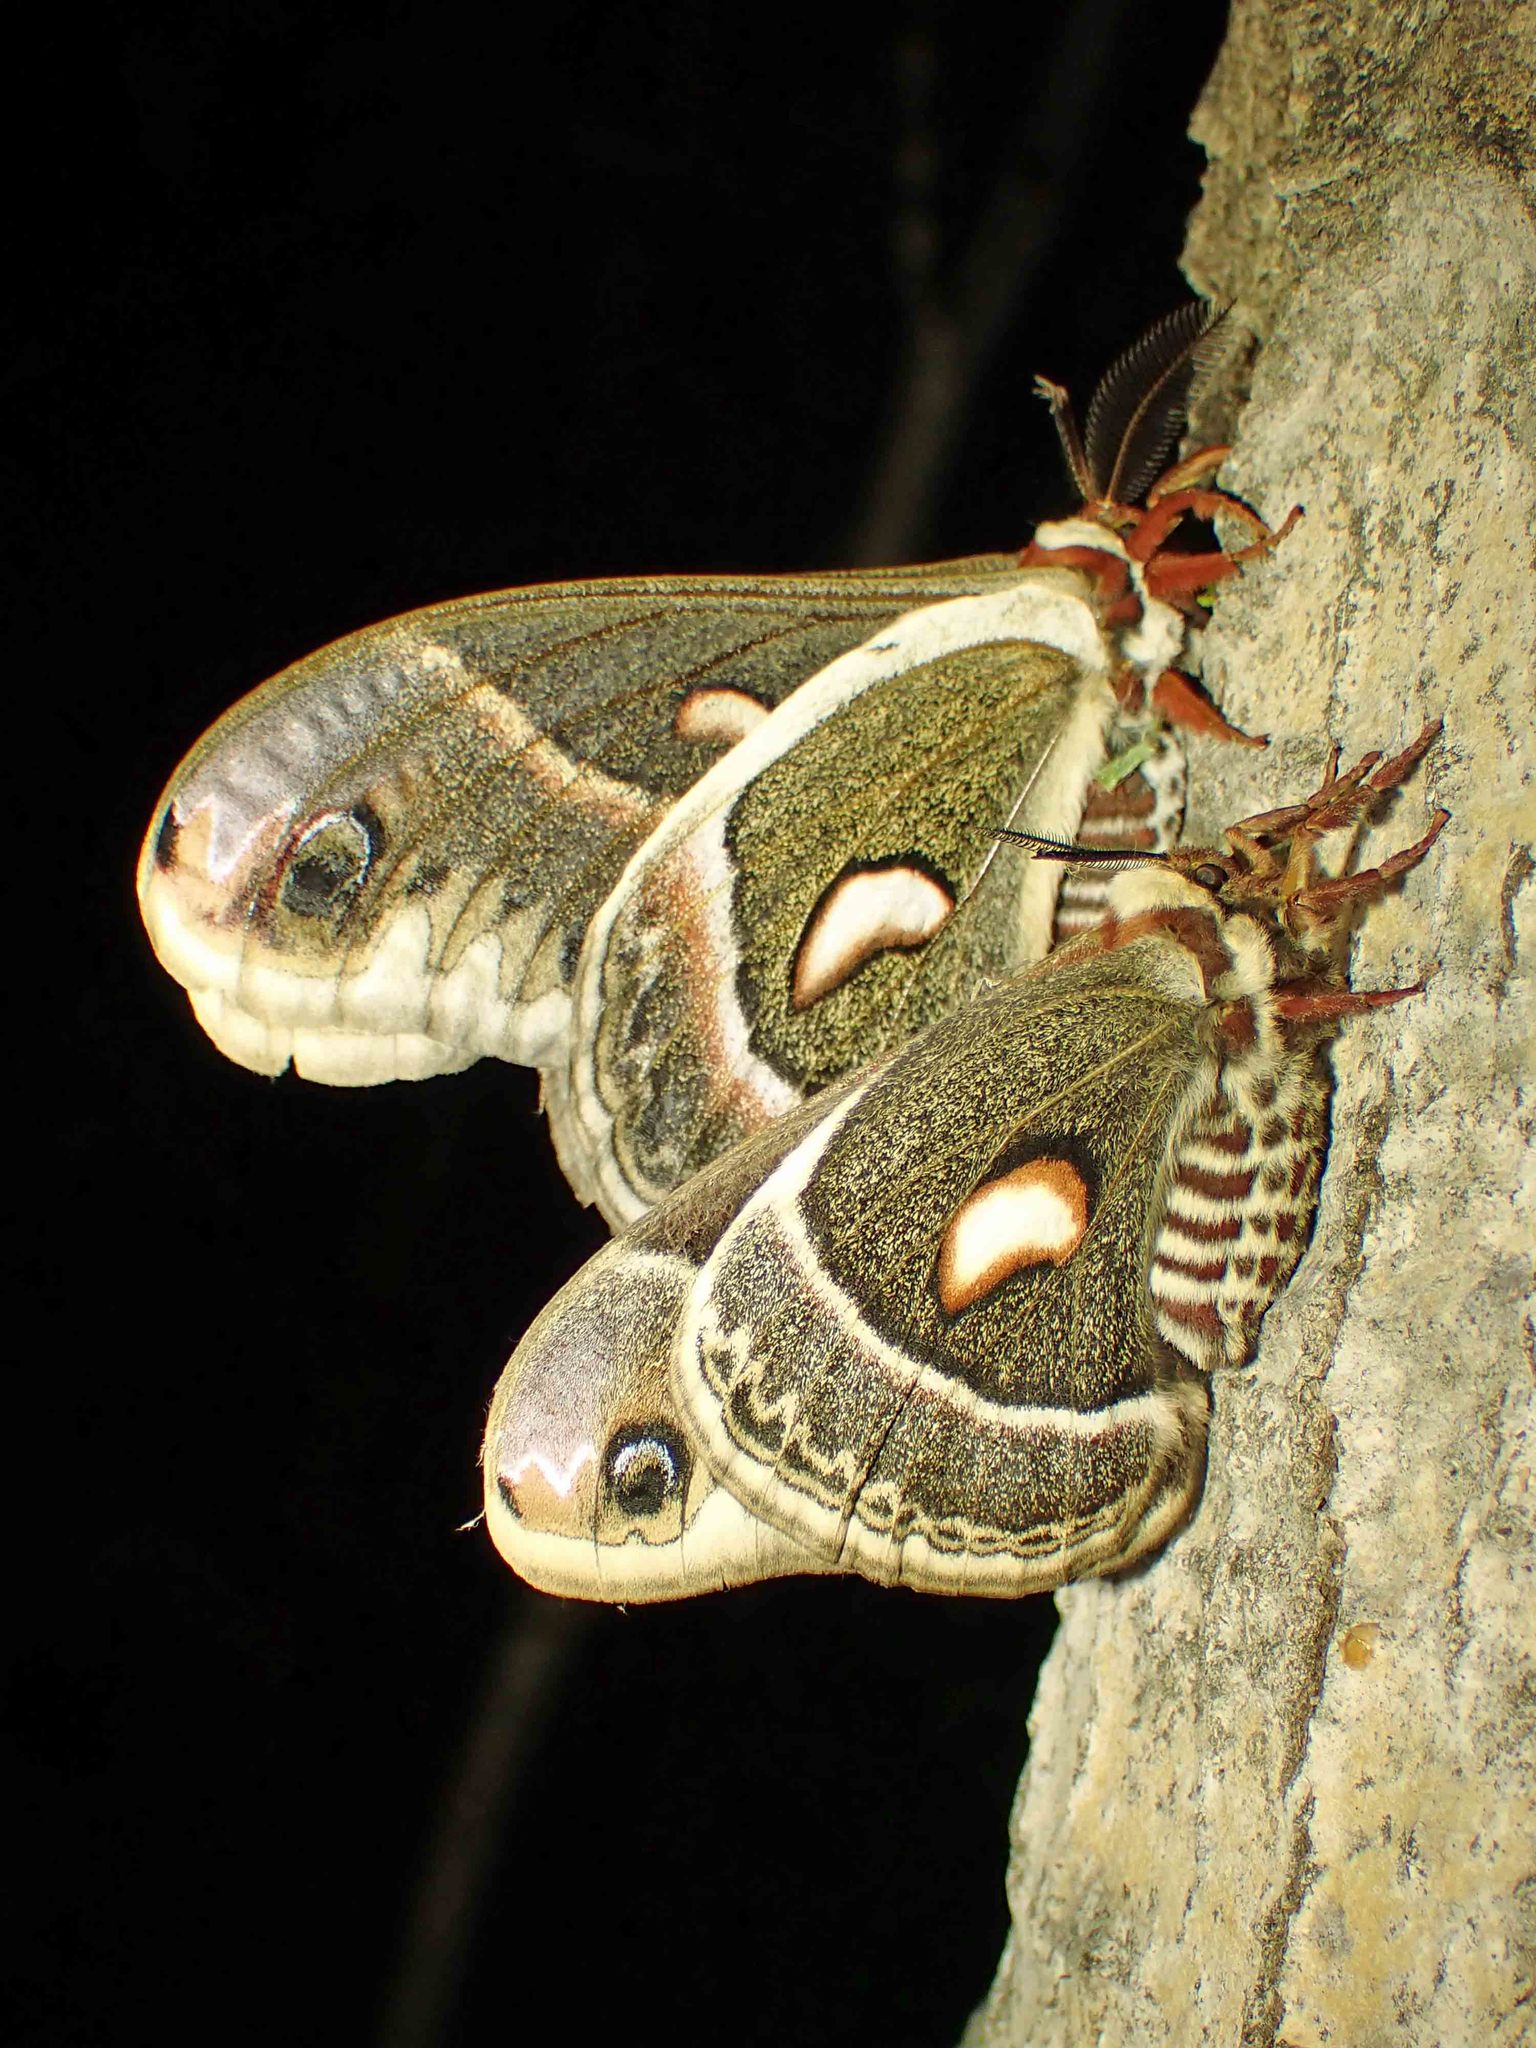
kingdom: Animalia
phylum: Arthropoda
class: Insecta
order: Lepidoptera
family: Saturniidae
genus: Hyalophora
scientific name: Hyalophora columbia
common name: Columbia silkmoth
